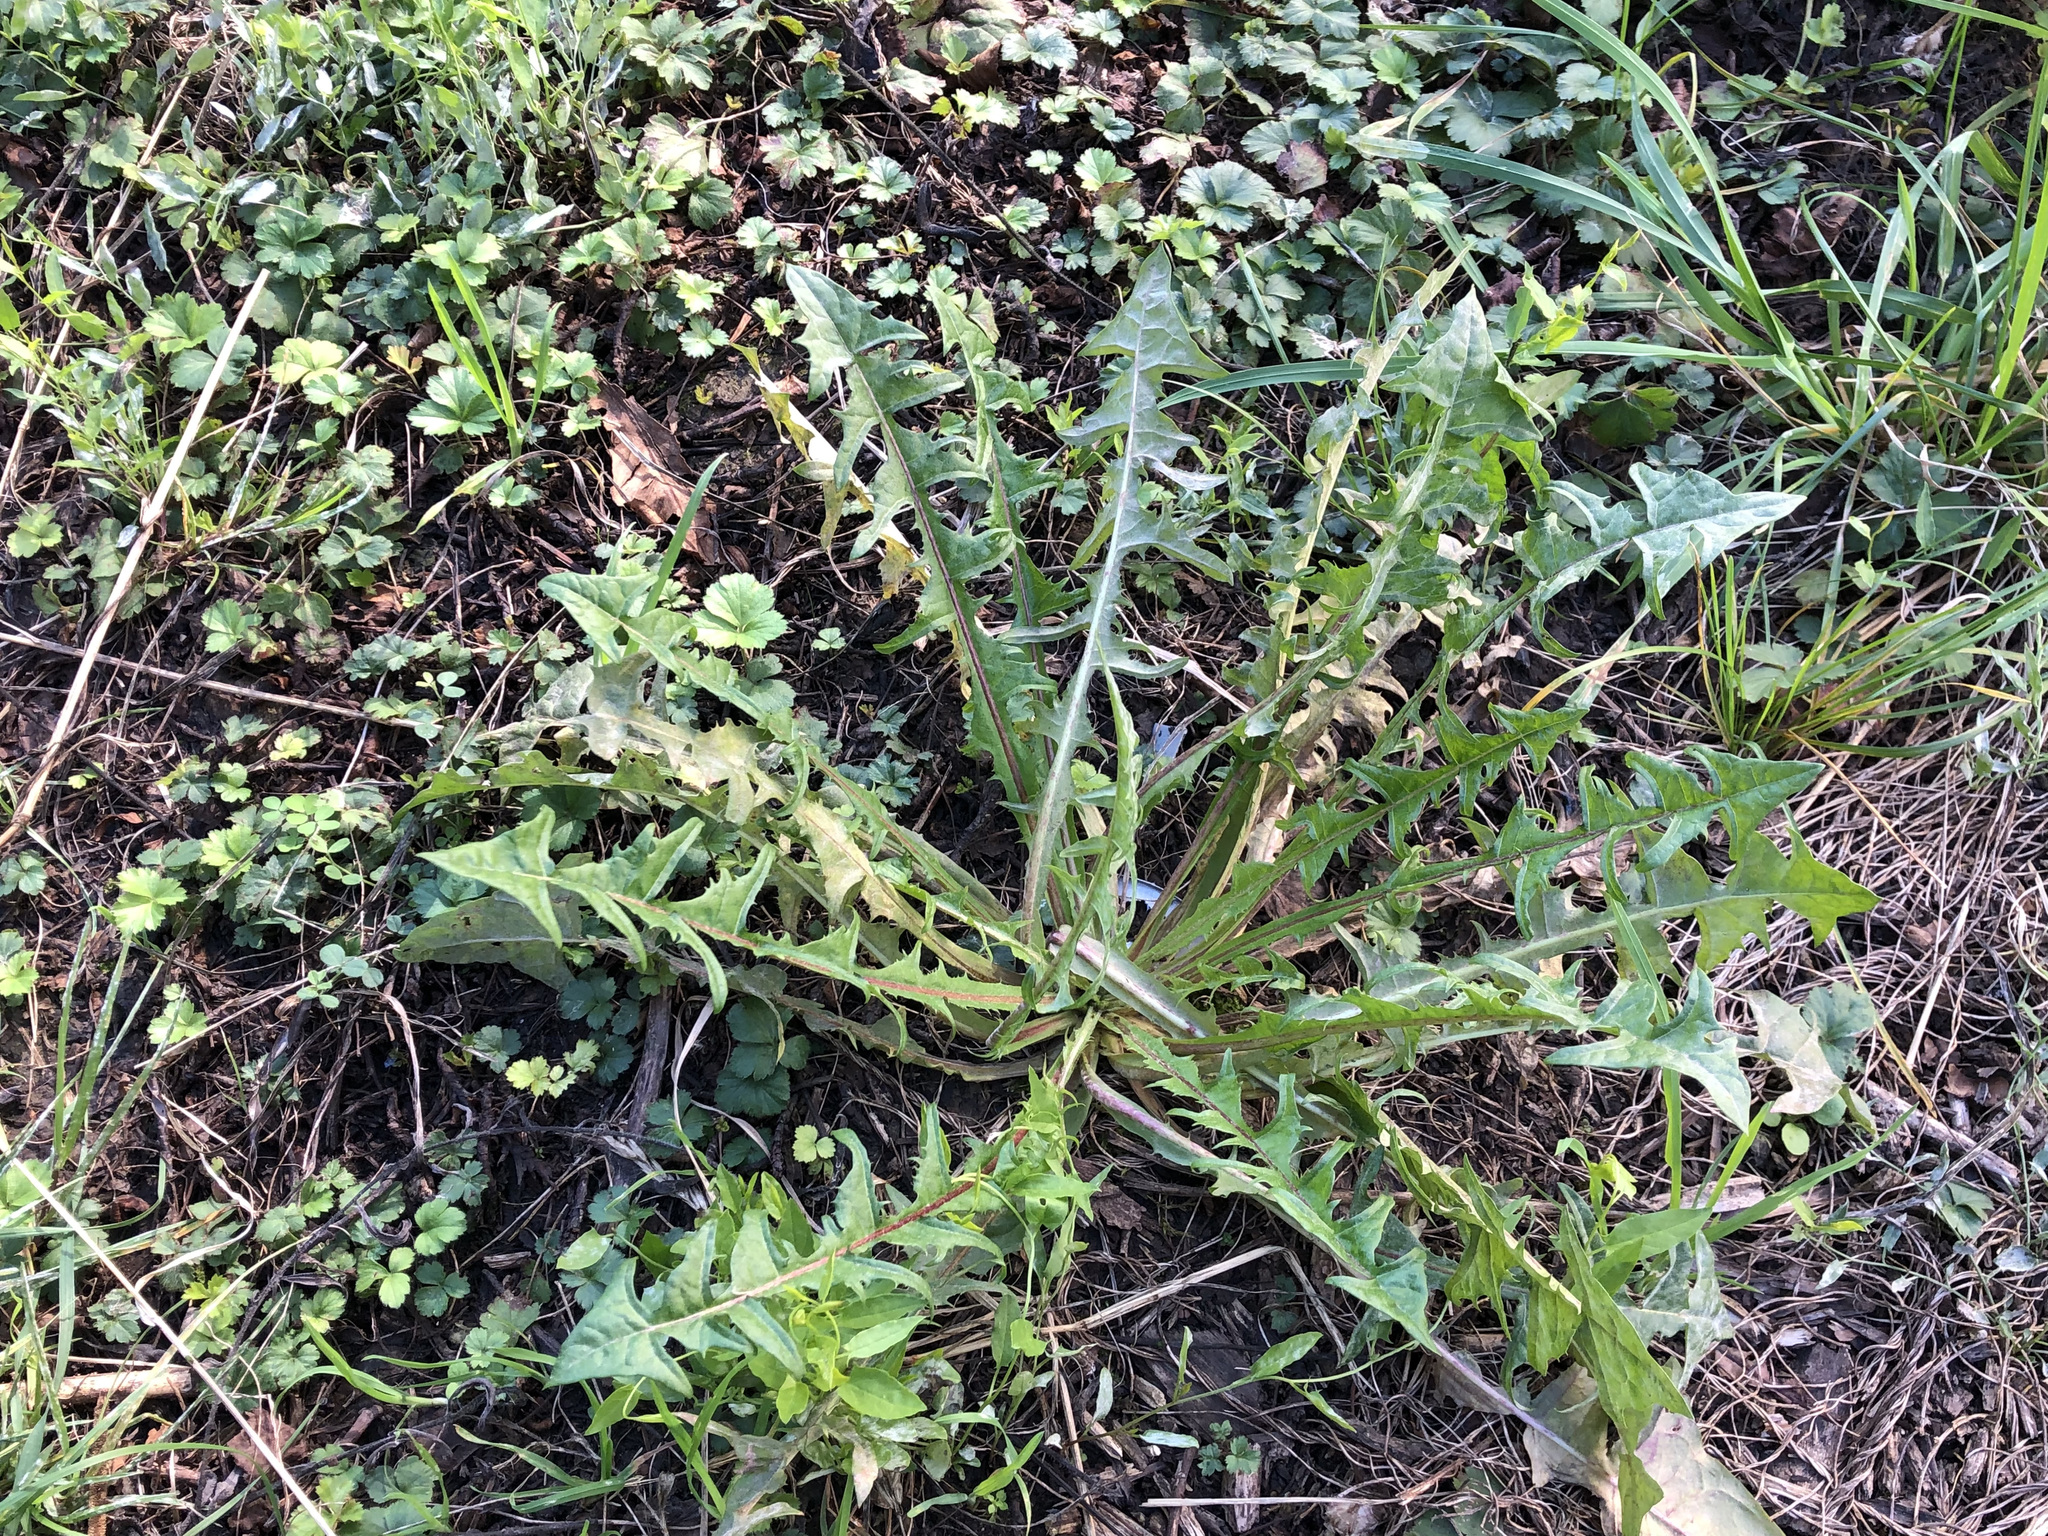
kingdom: Plantae
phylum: Tracheophyta
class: Magnoliopsida
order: Asterales
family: Asteraceae
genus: Taraxacum
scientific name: Taraxacum officinale
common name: Common dandelion
